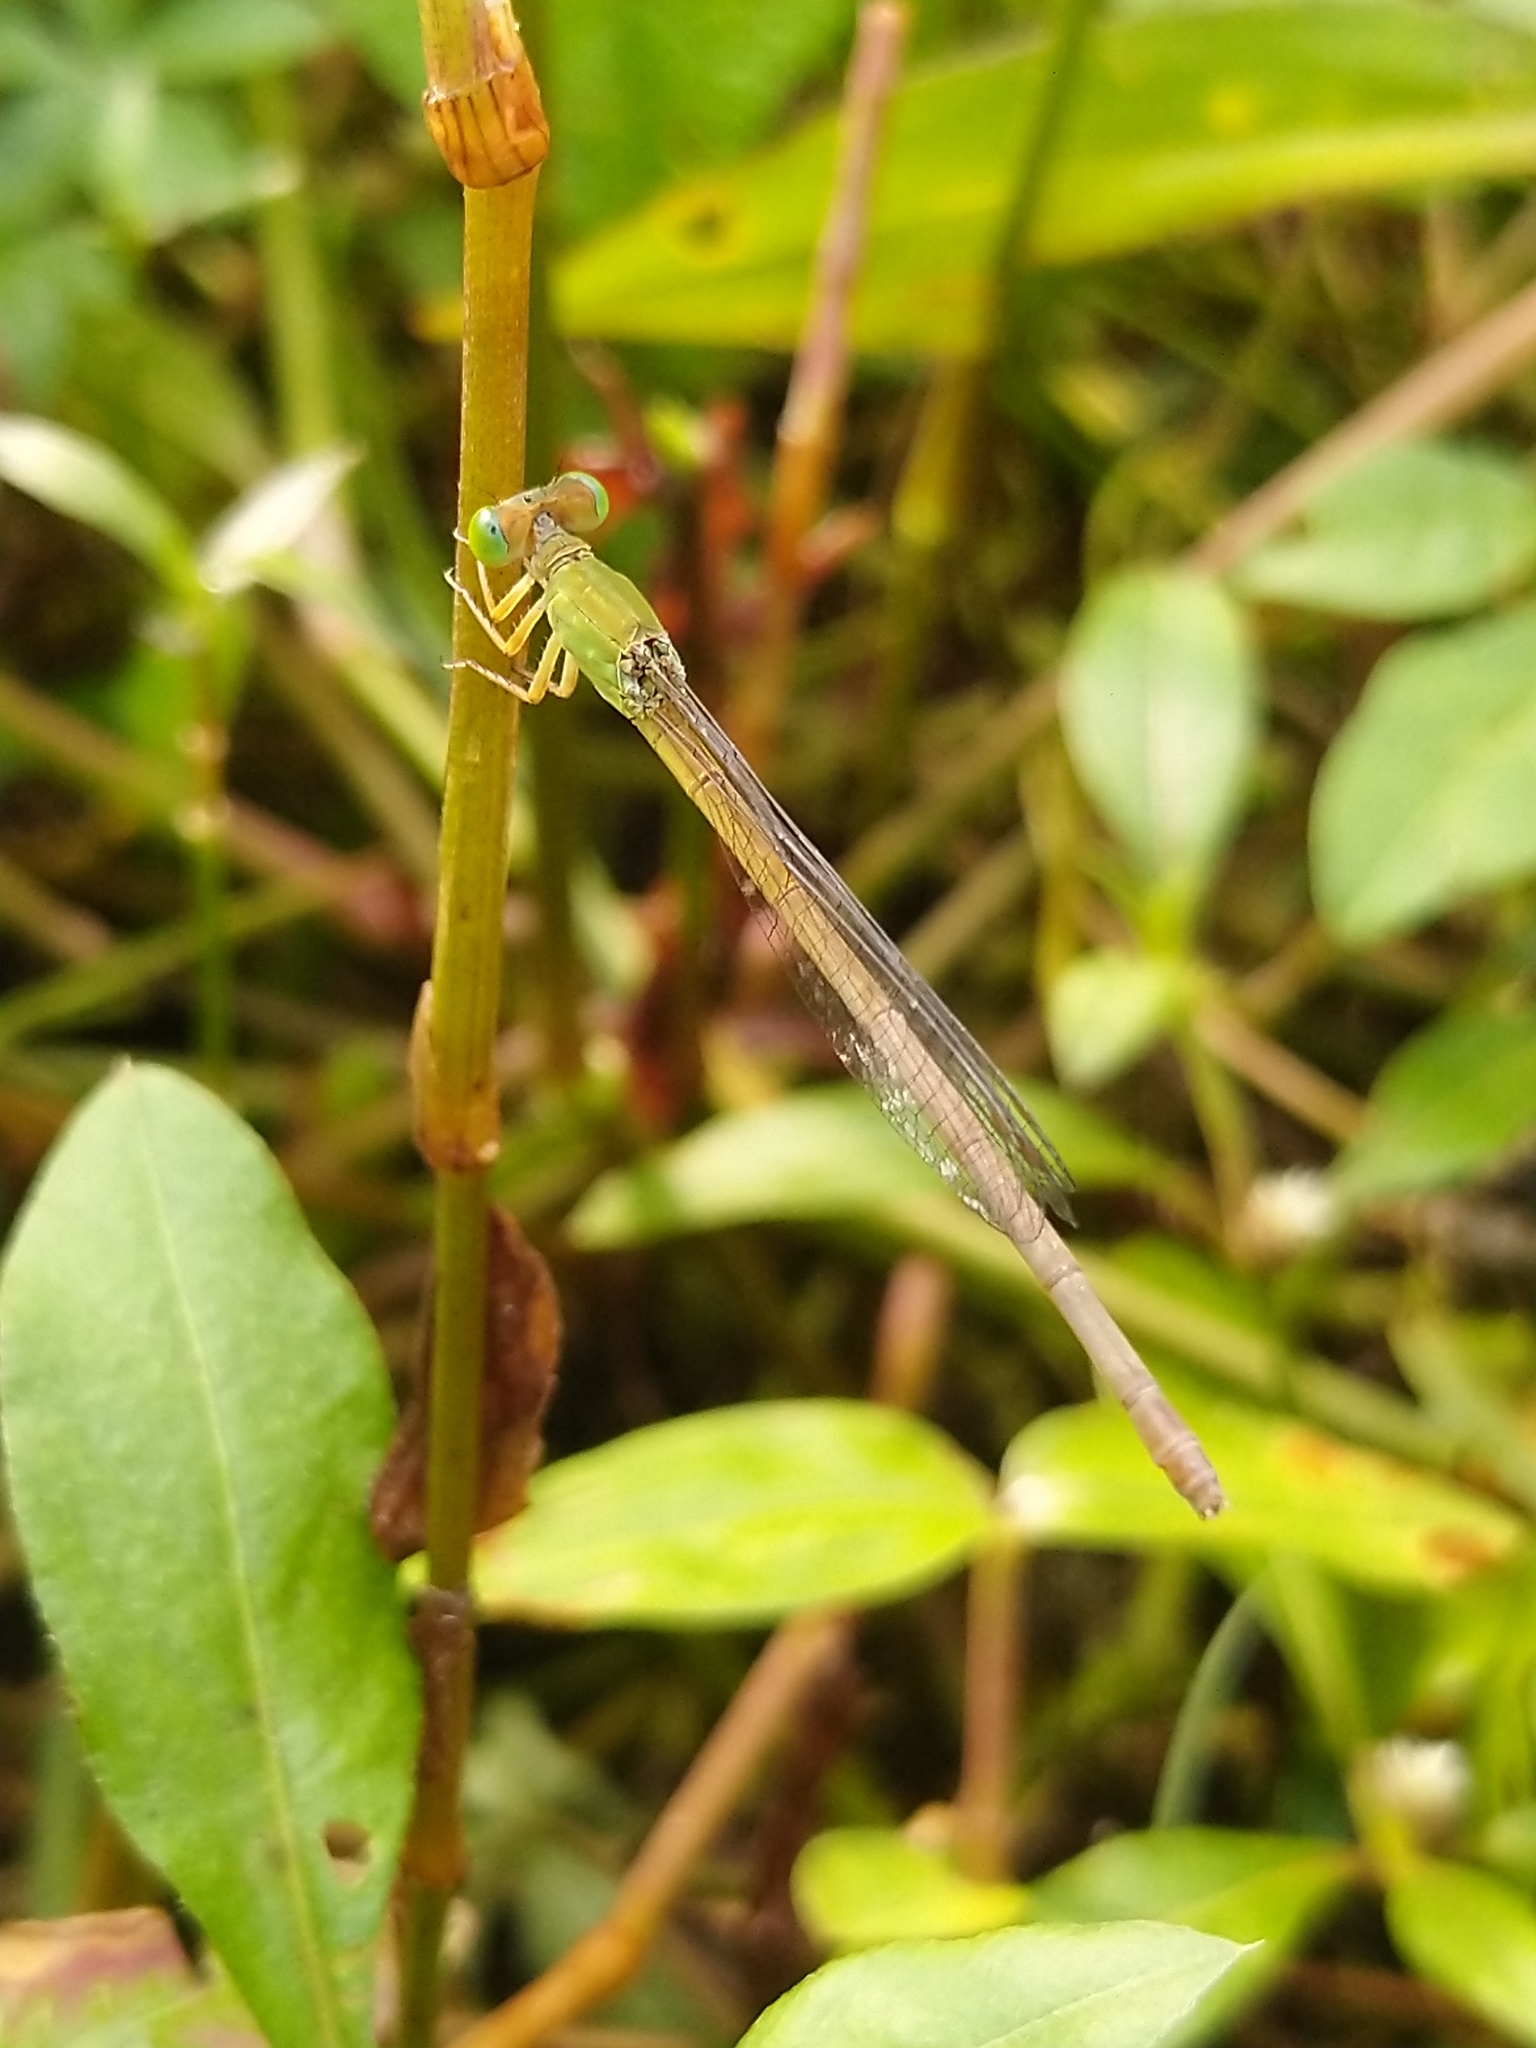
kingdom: Animalia
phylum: Arthropoda
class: Insecta
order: Odonata
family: Coenagrionidae
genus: Ceriagrion
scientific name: Ceriagrion coromandelianum
